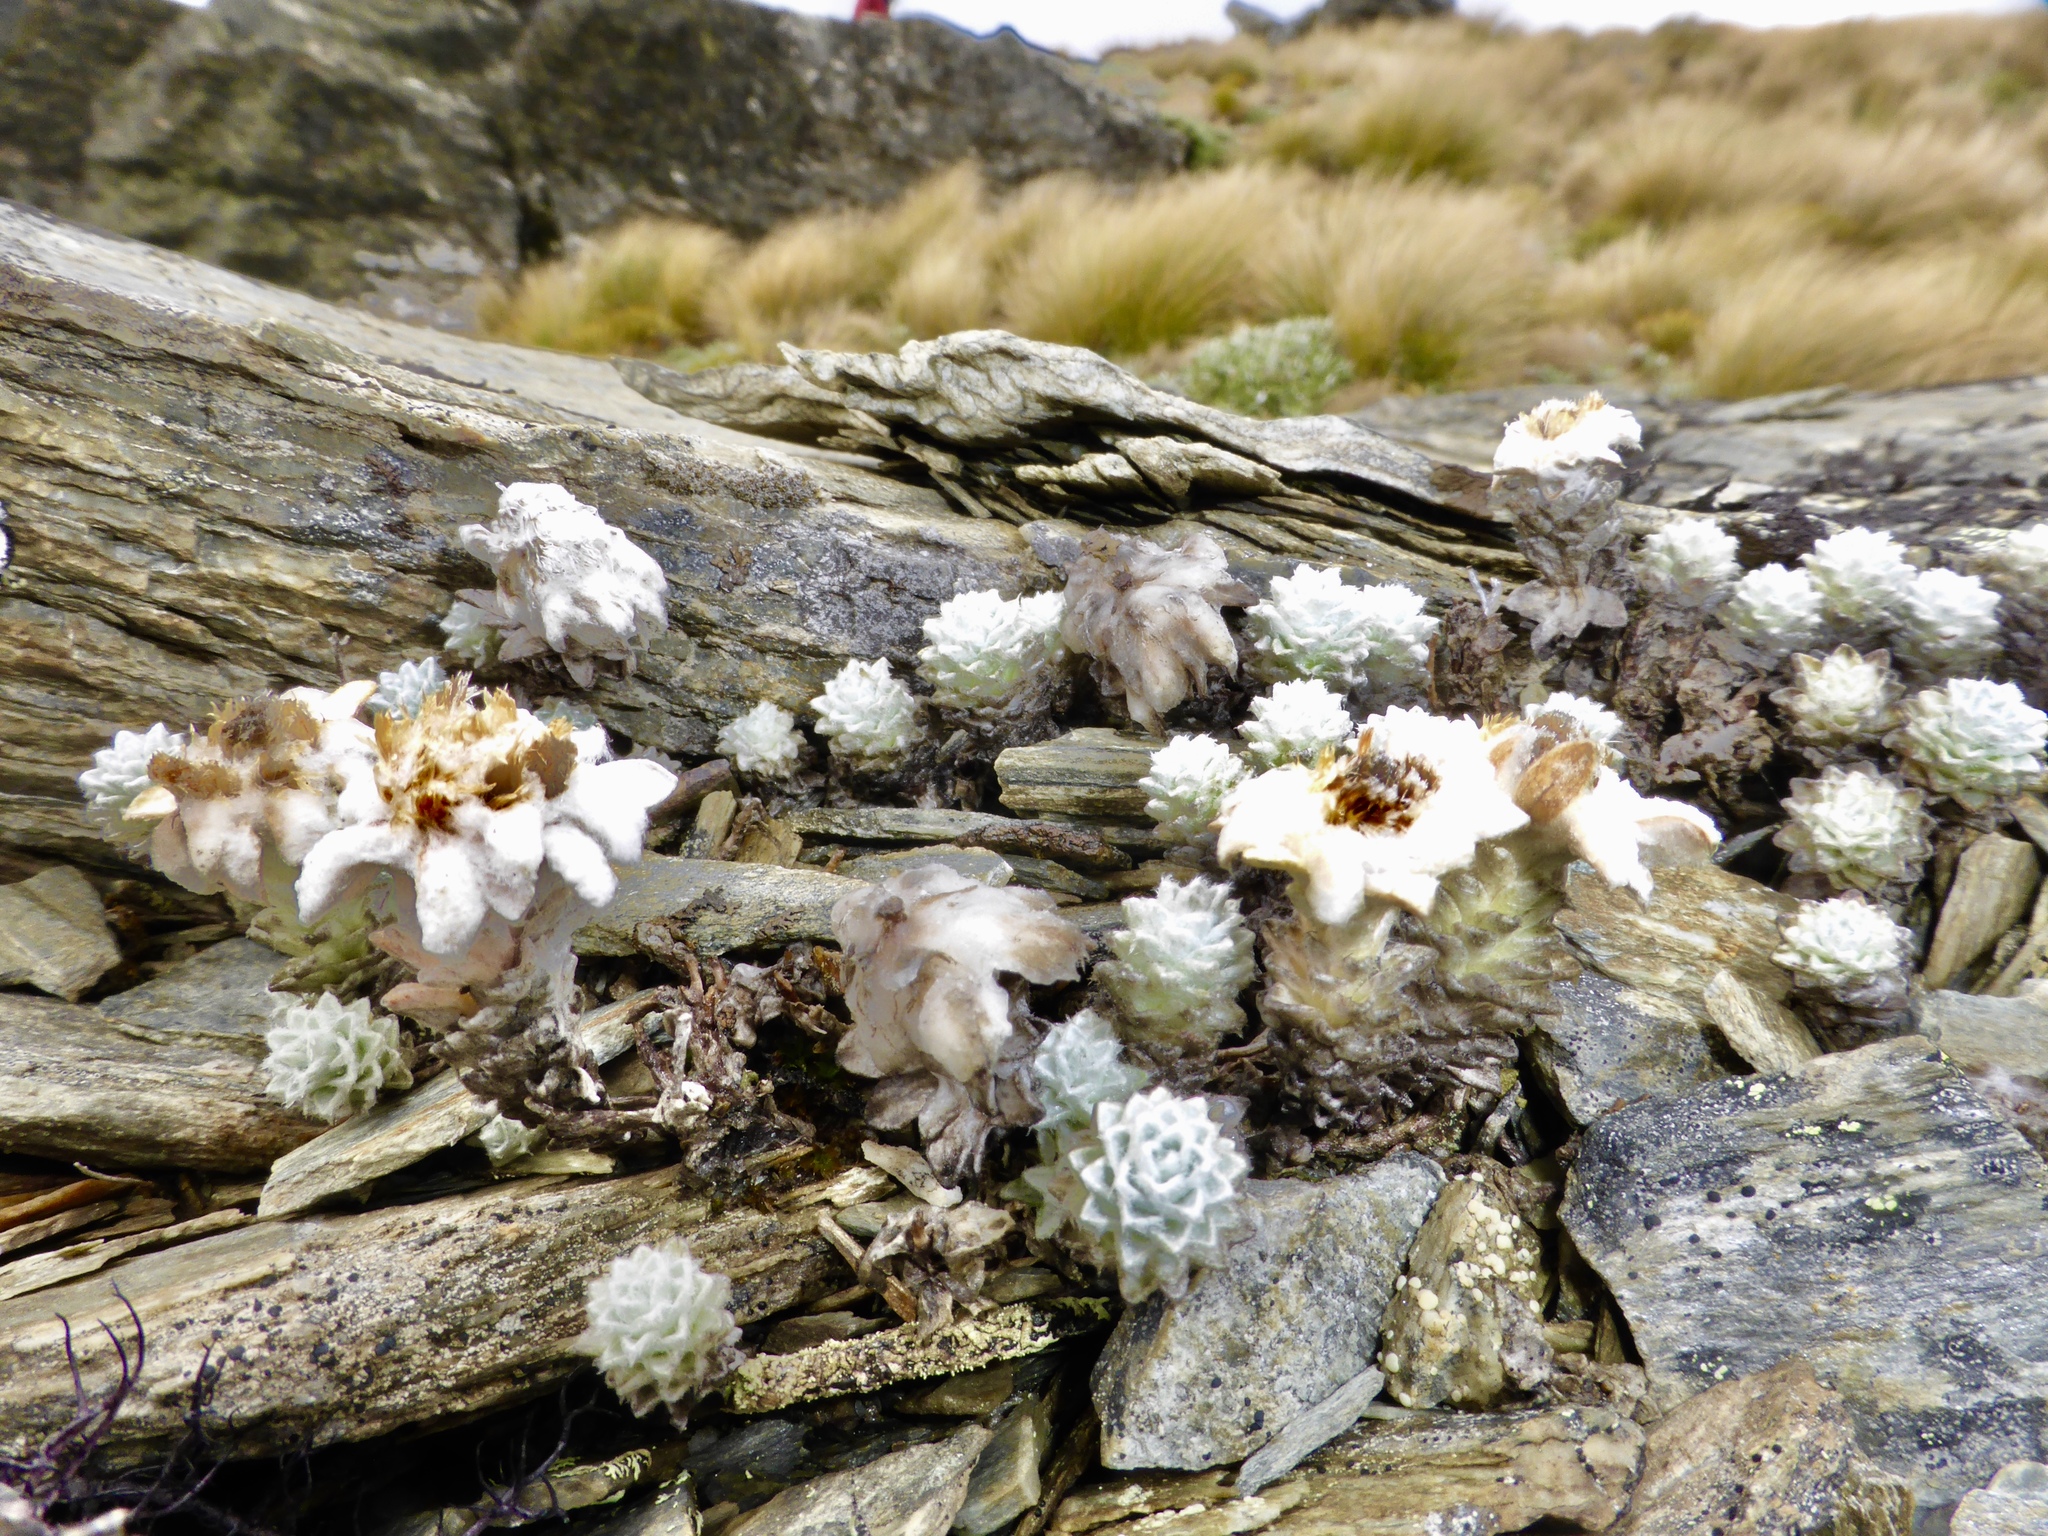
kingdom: Plantae
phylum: Tracheophyta
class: Magnoliopsida
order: Asterales
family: Asteraceae
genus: Leucogenes
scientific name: Leucogenes grandiceps
